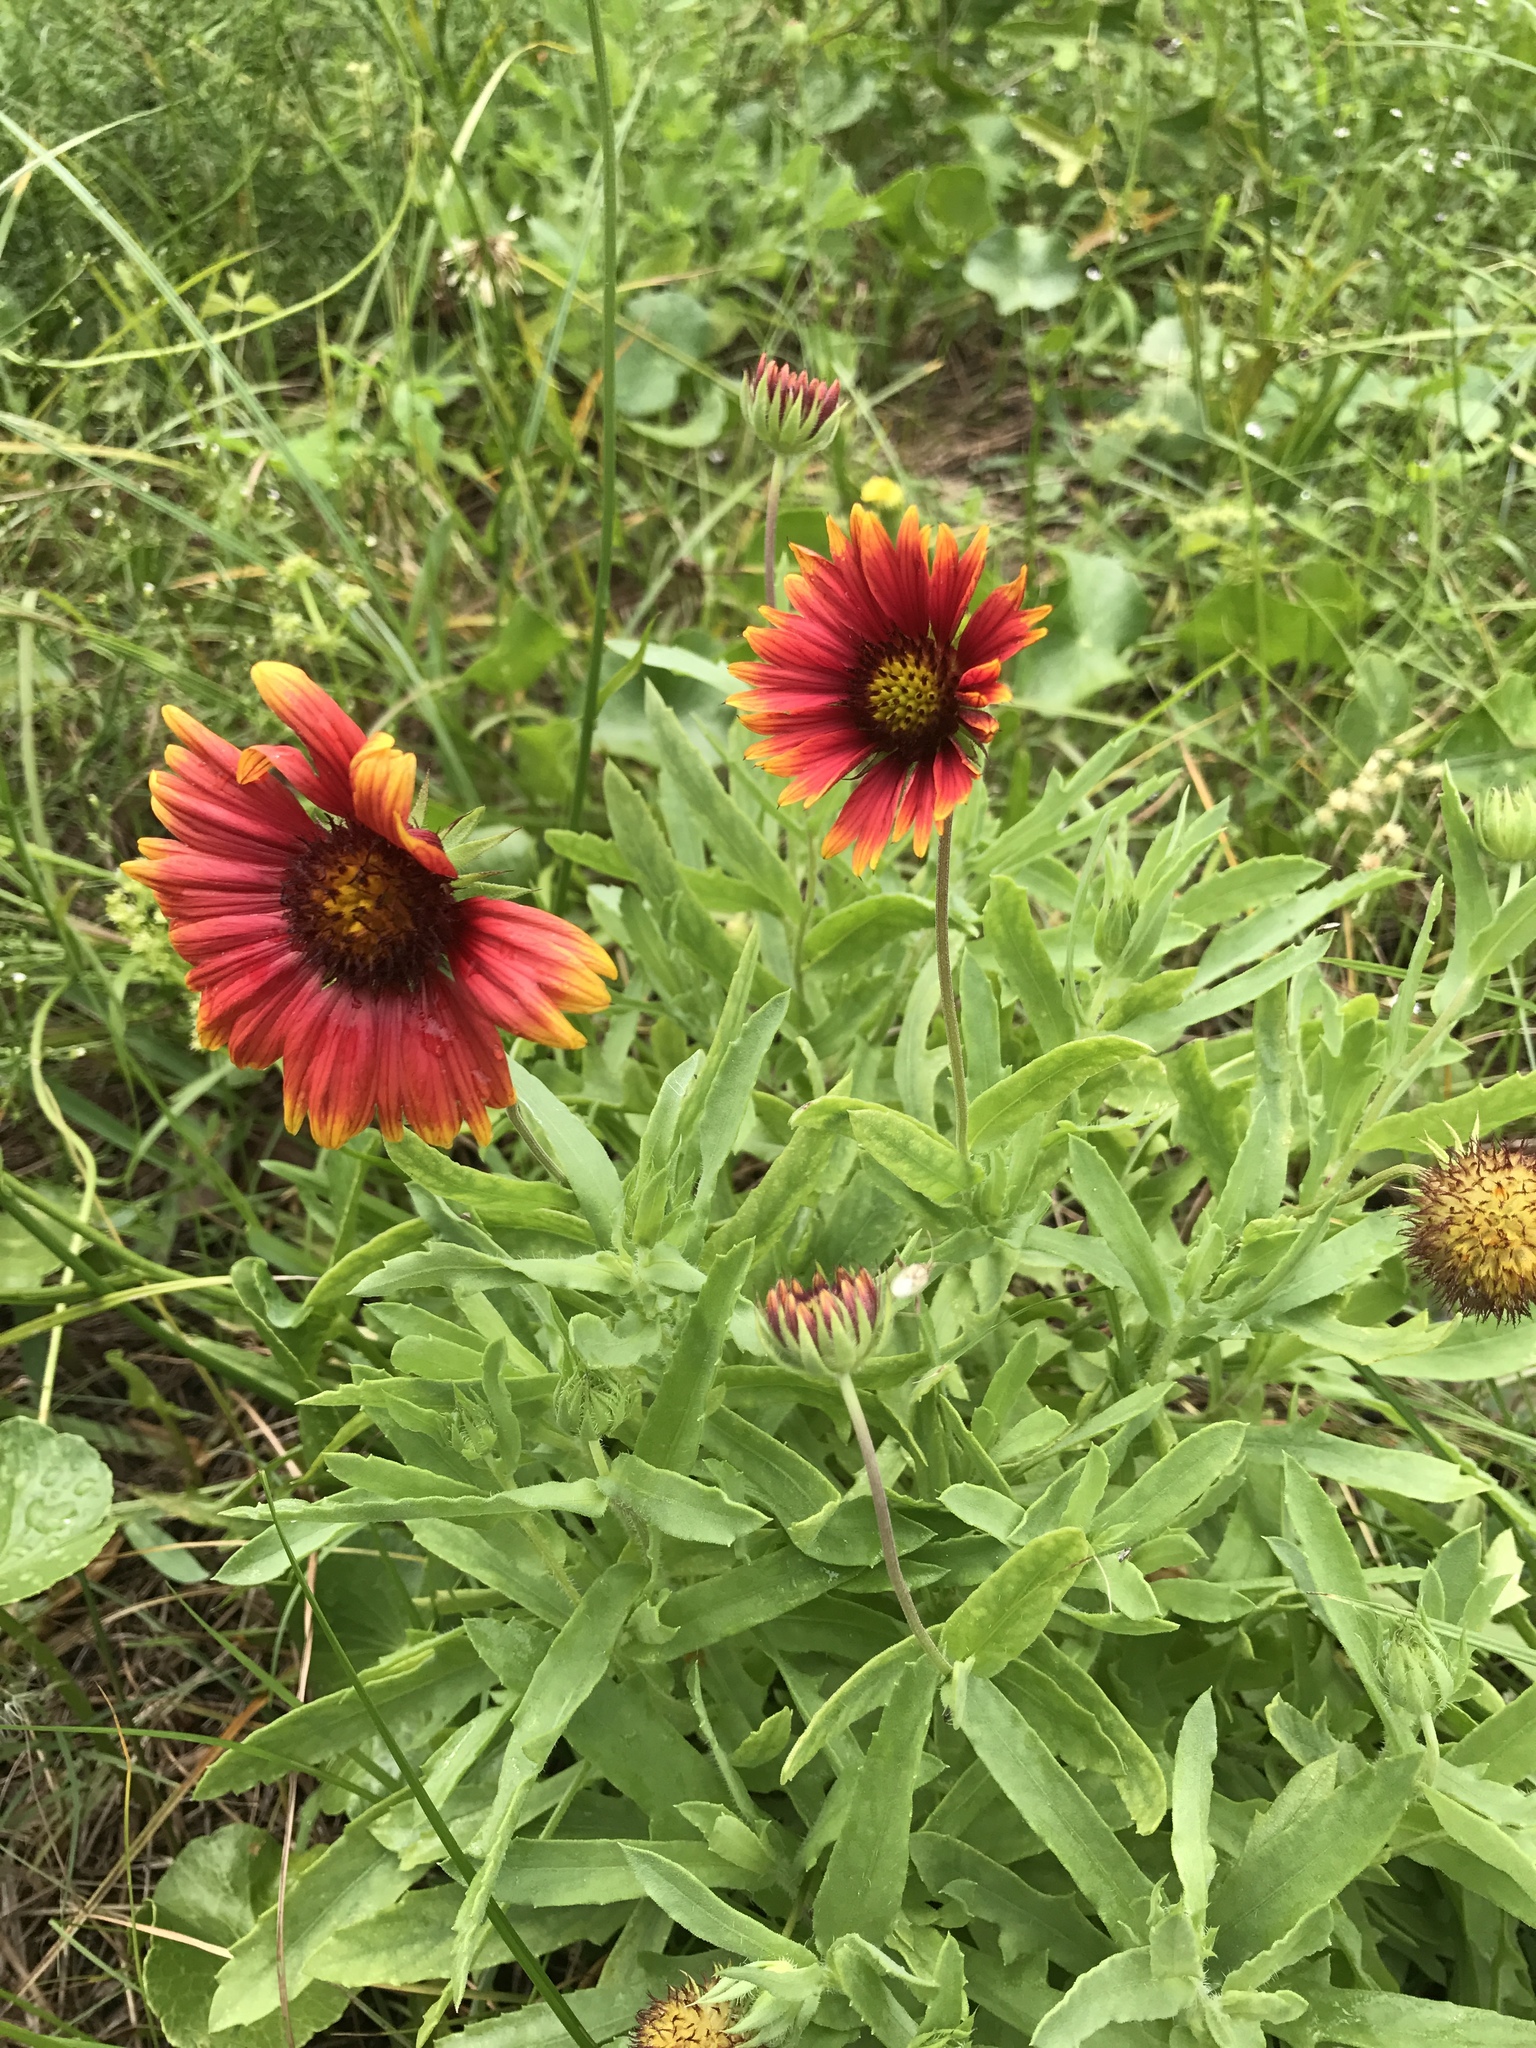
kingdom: Plantae
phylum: Tracheophyta
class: Magnoliopsida
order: Asterales
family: Asteraceae
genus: Gaillardia
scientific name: Gaillardia pulchella
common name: Firewheel
